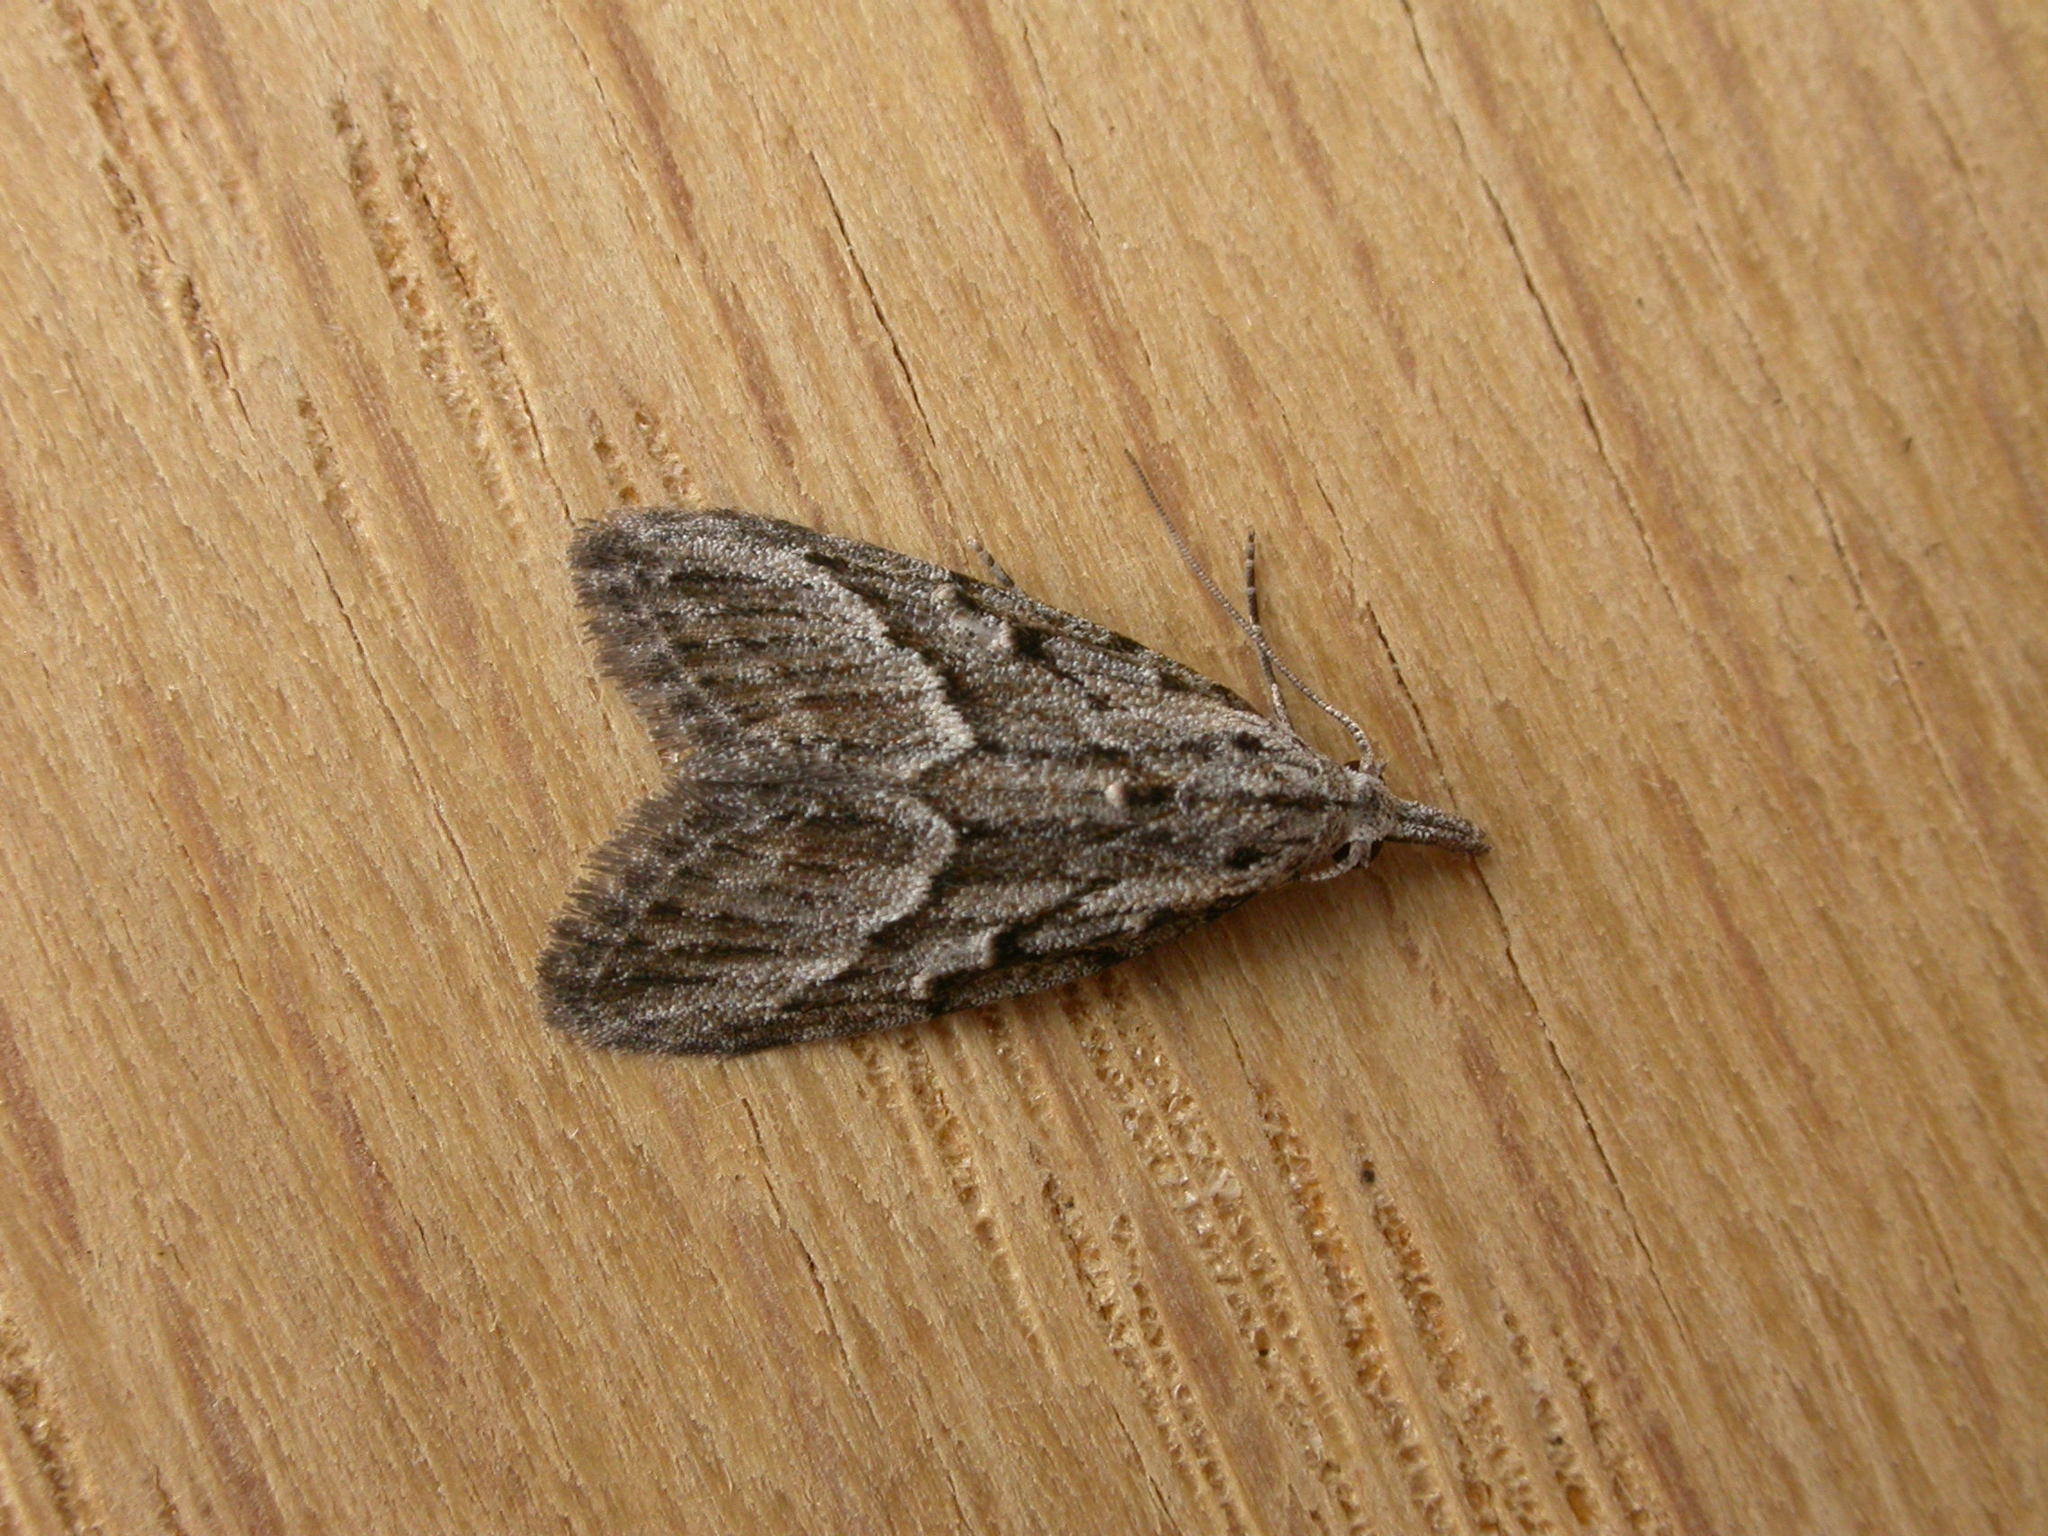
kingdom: Animalia
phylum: Arthropoda
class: Insecta
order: Lepidoptera
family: Nolidae
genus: Nola
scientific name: Nola phaeogramma
